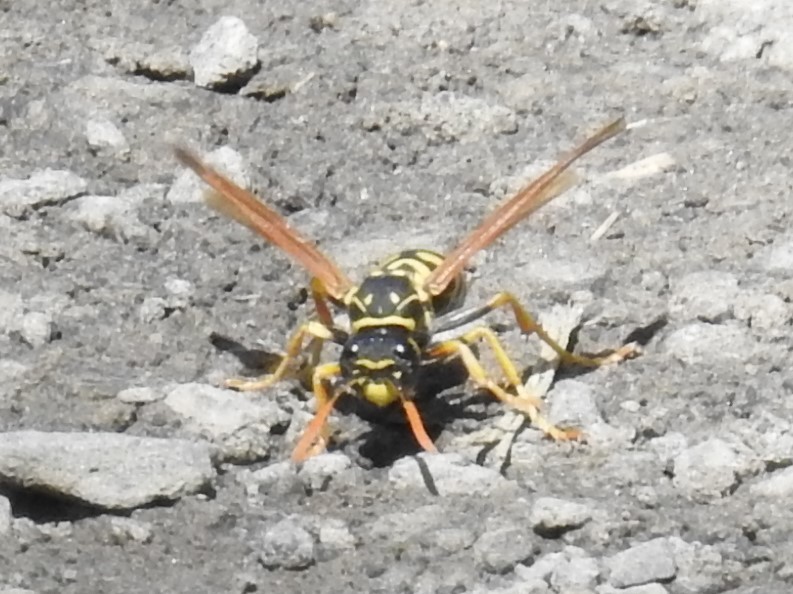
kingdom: Animalia
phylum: Arthropoda
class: Insecta
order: Hymenoptera
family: Eumenidae
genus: Polistes
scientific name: Polistes dominula
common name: Paper wasp
